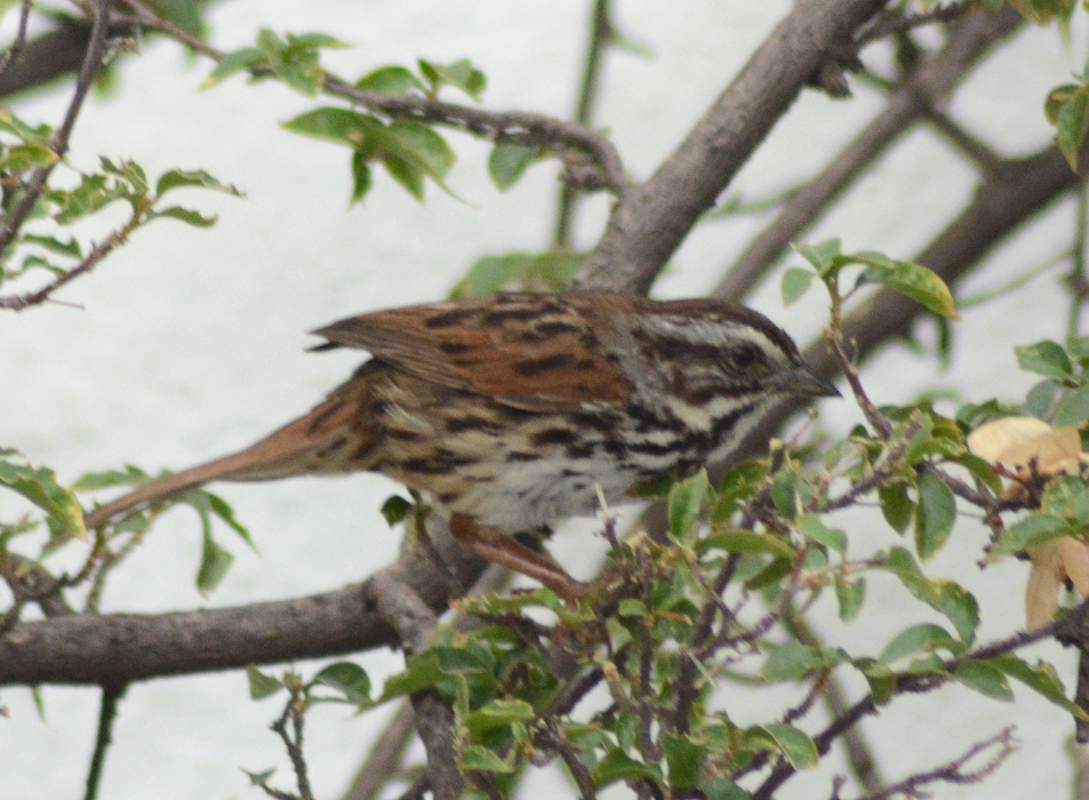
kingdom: Animalia
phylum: Chordata
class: Aves
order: Passeriformes
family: Passerellidae
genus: Melospiza
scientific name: Melospiza melodia
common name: Song sparrow
